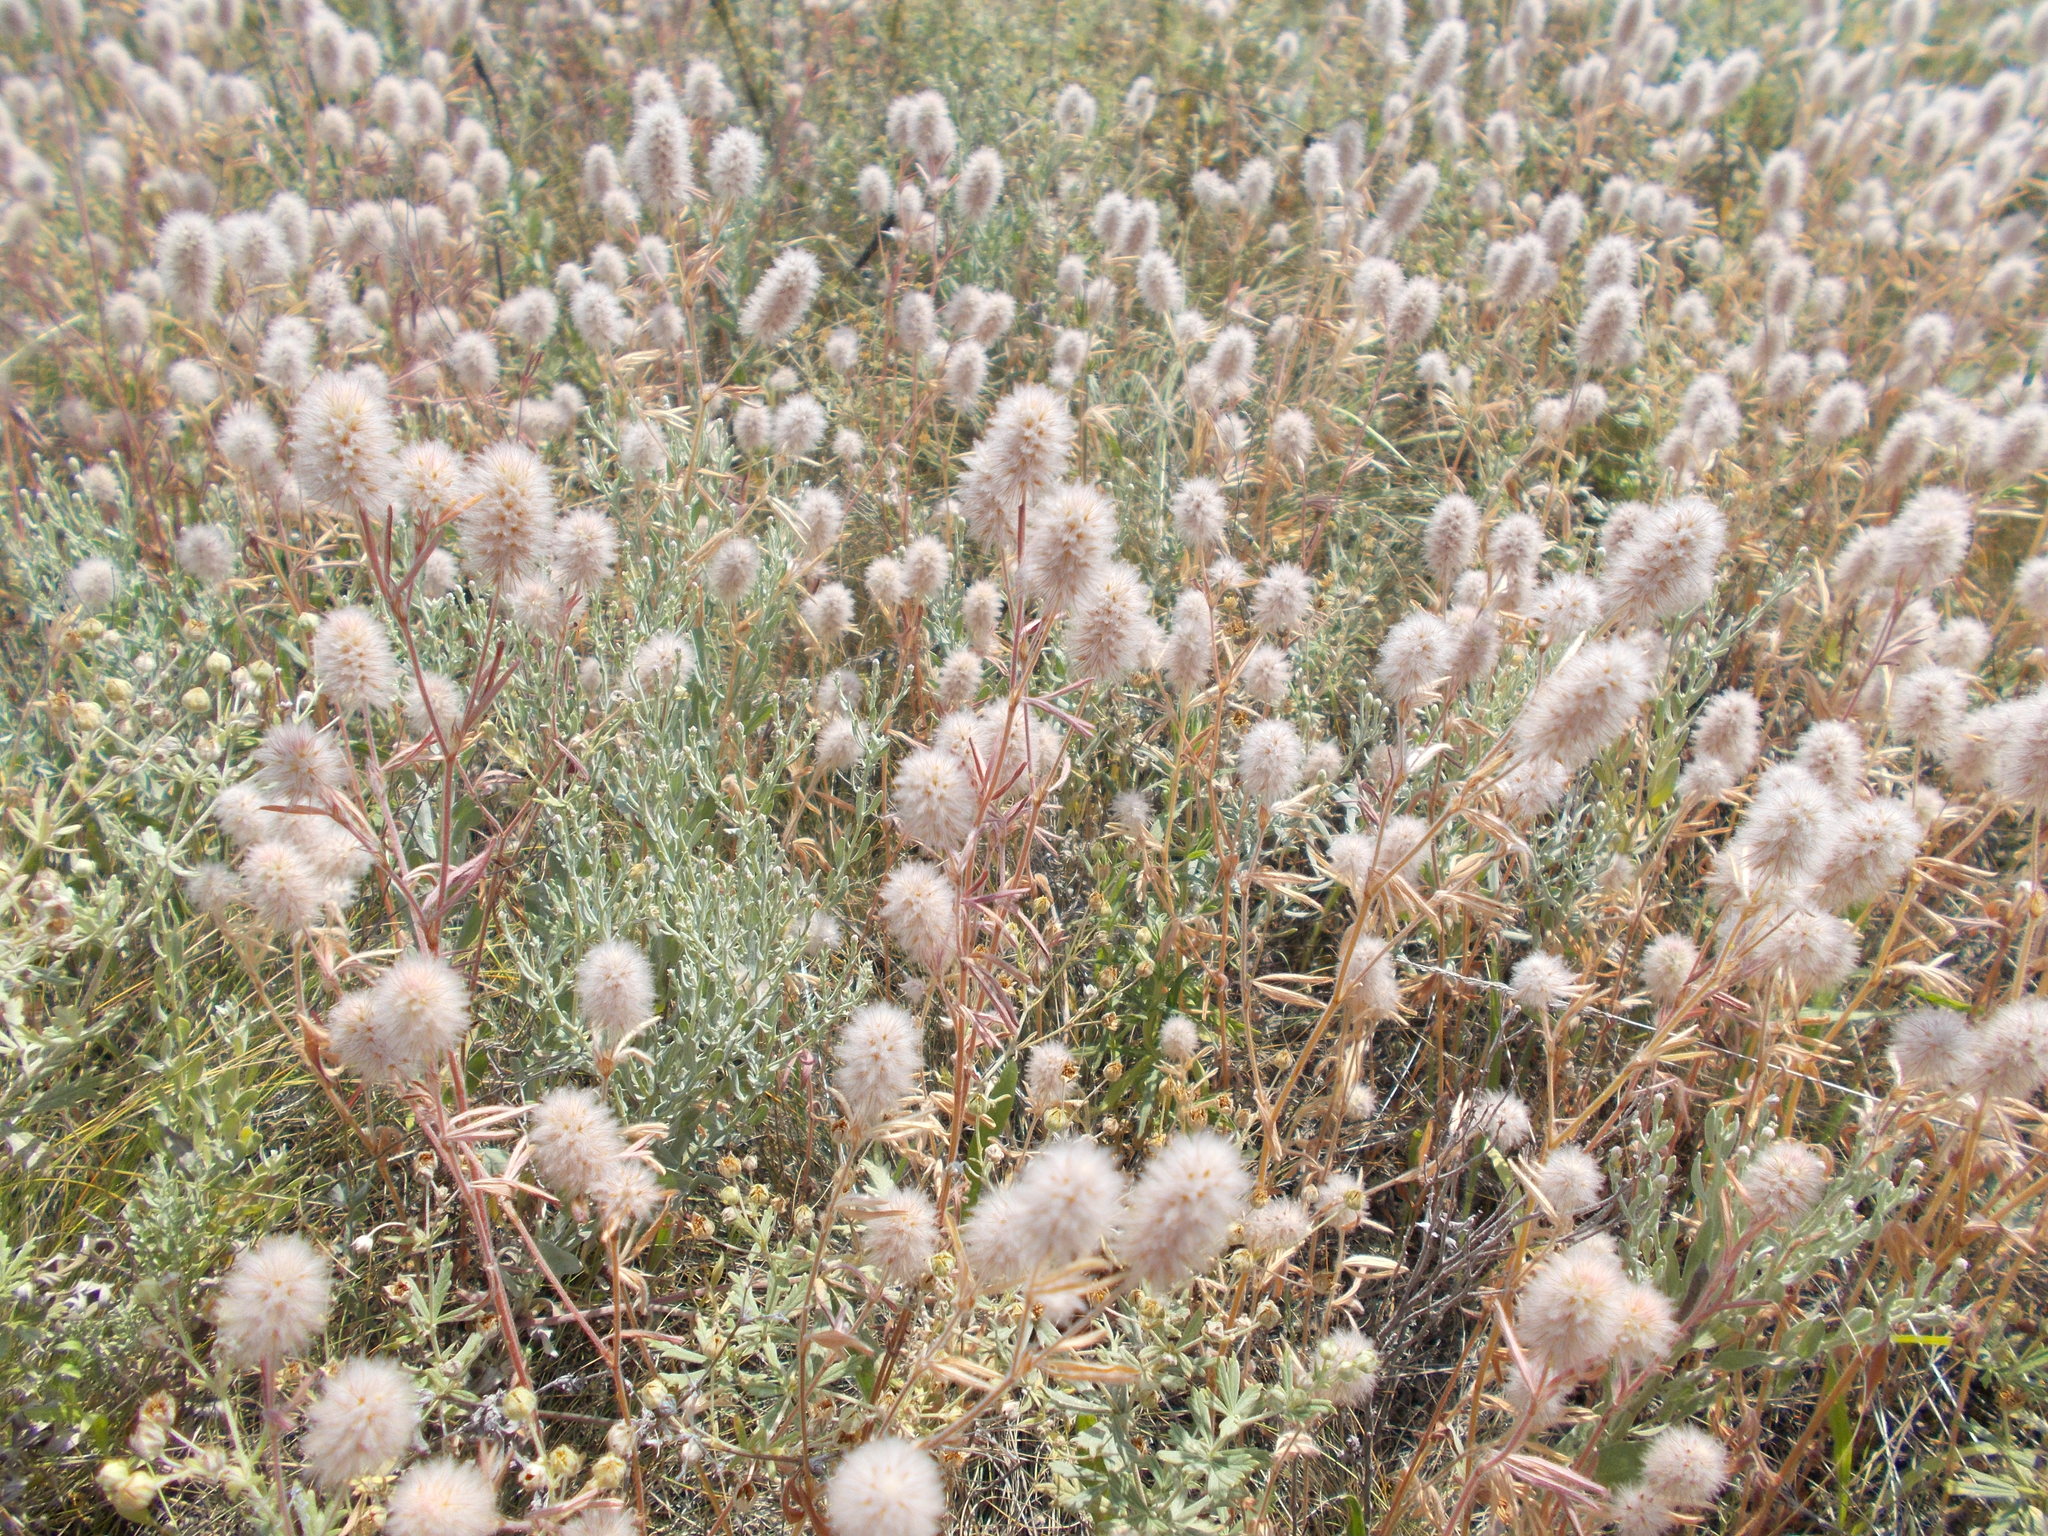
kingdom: Plantae
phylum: Tracheophyta
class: Magnoliopsida
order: Fabales
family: Fabaceae
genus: Trifolium
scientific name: Trifolium arvense
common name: Hare's-foot clover
